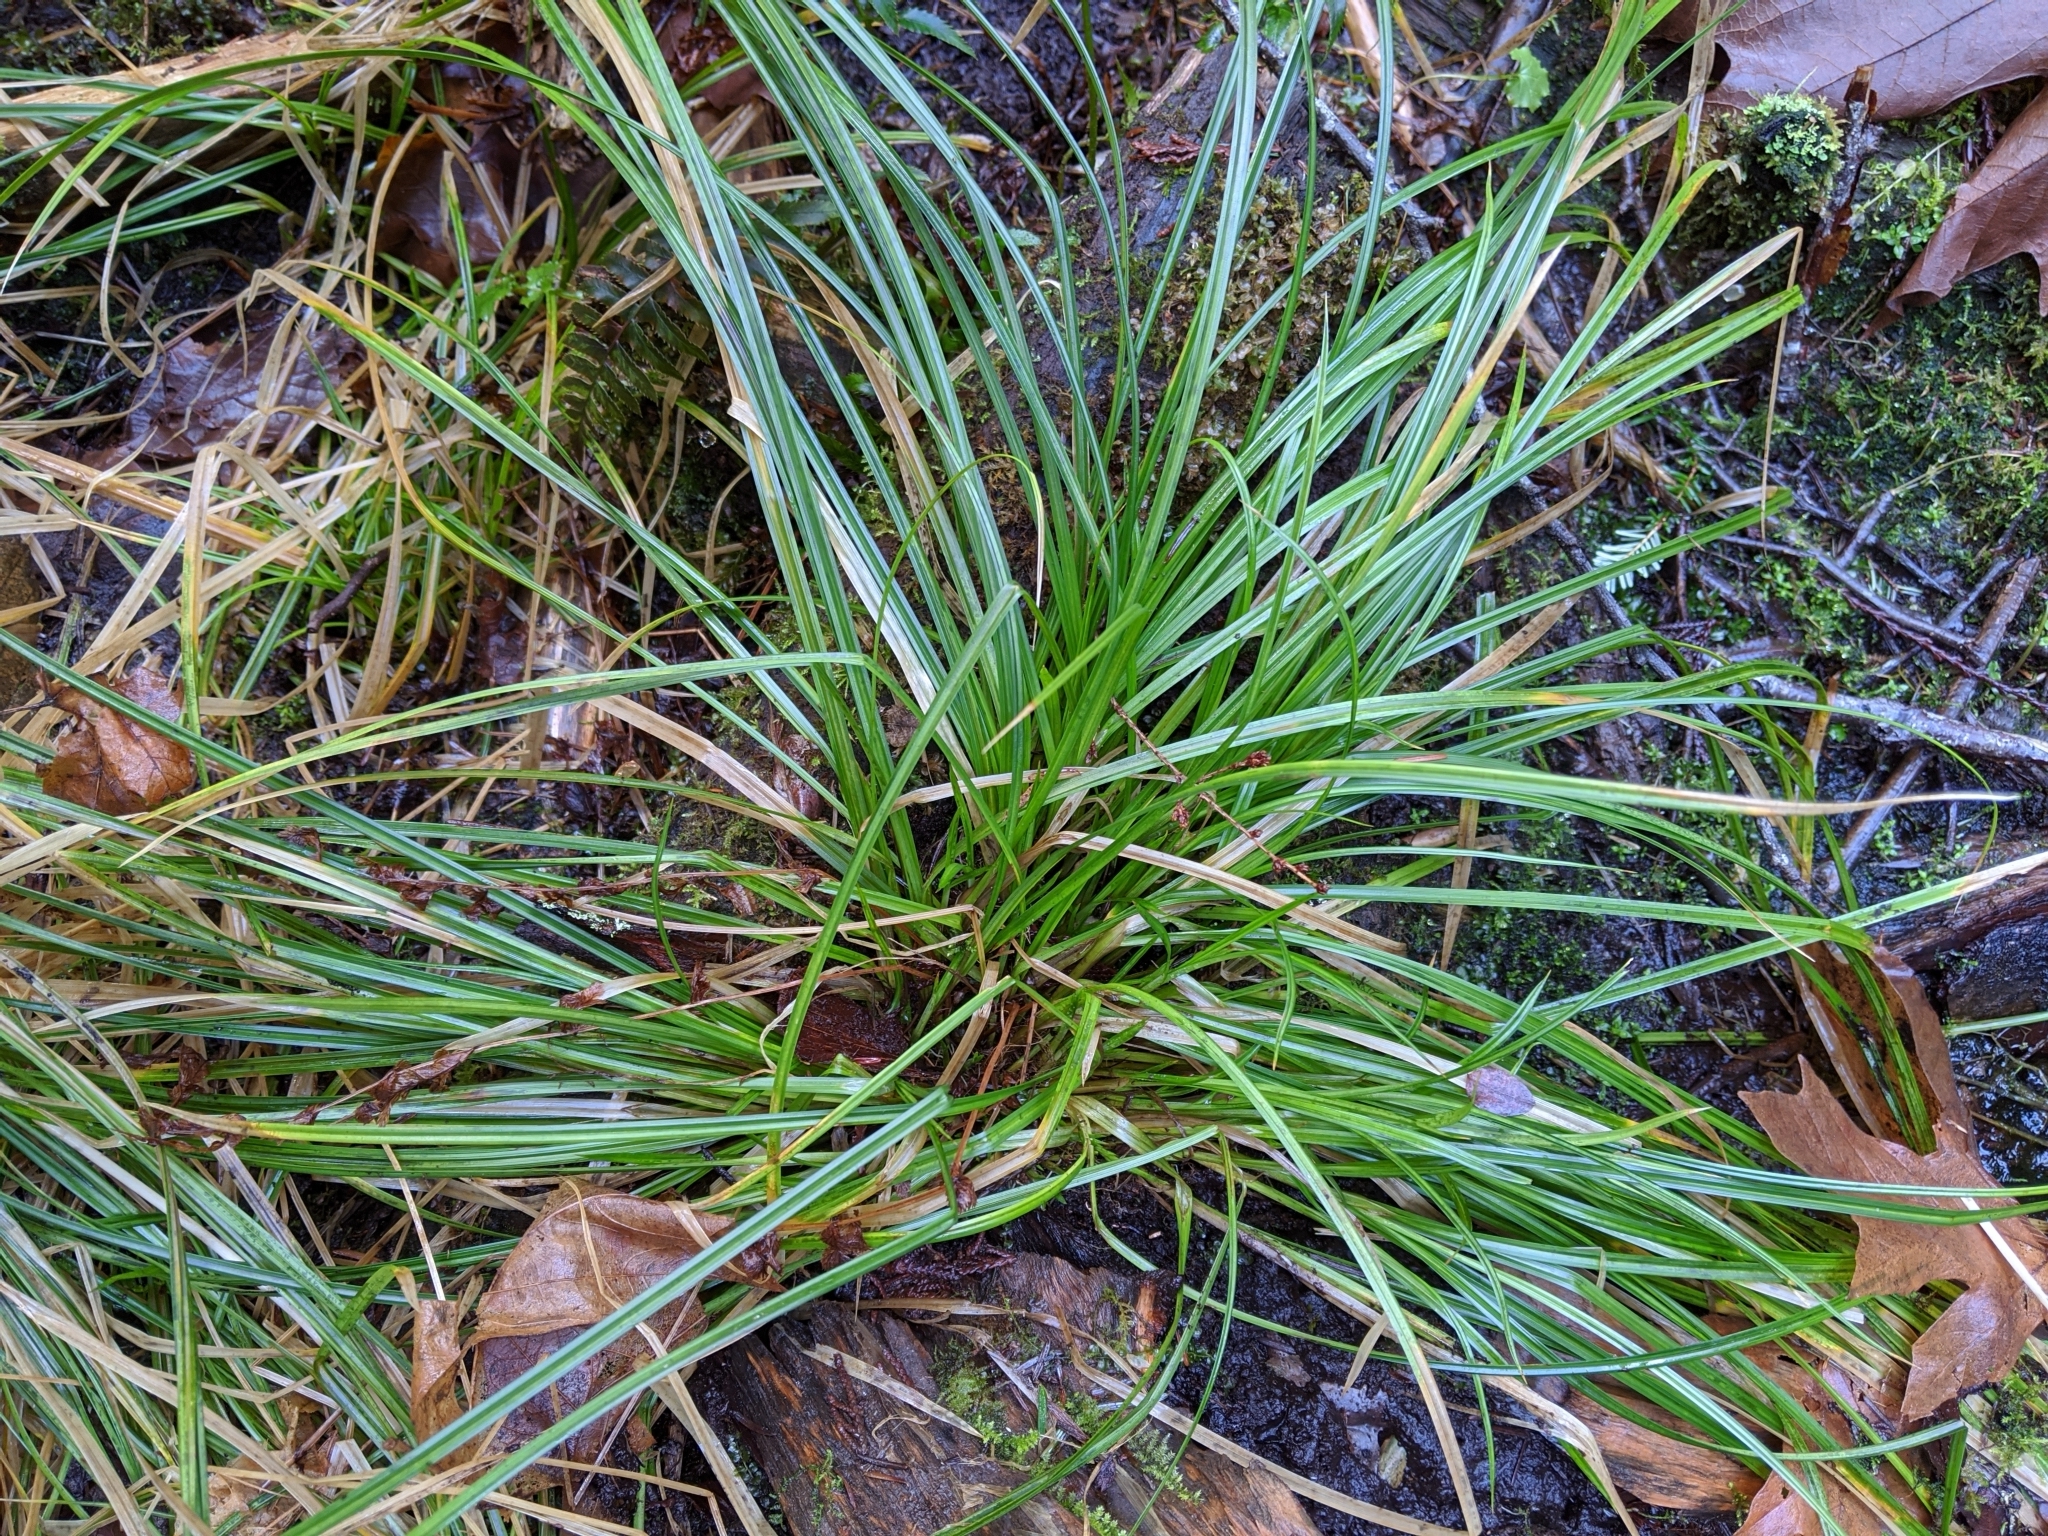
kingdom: Plantae
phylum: Tracheophyta
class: Liliopsida
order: Poales
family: Cyperaceae
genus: Carex
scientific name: Carex obnupta
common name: Slough sedge
